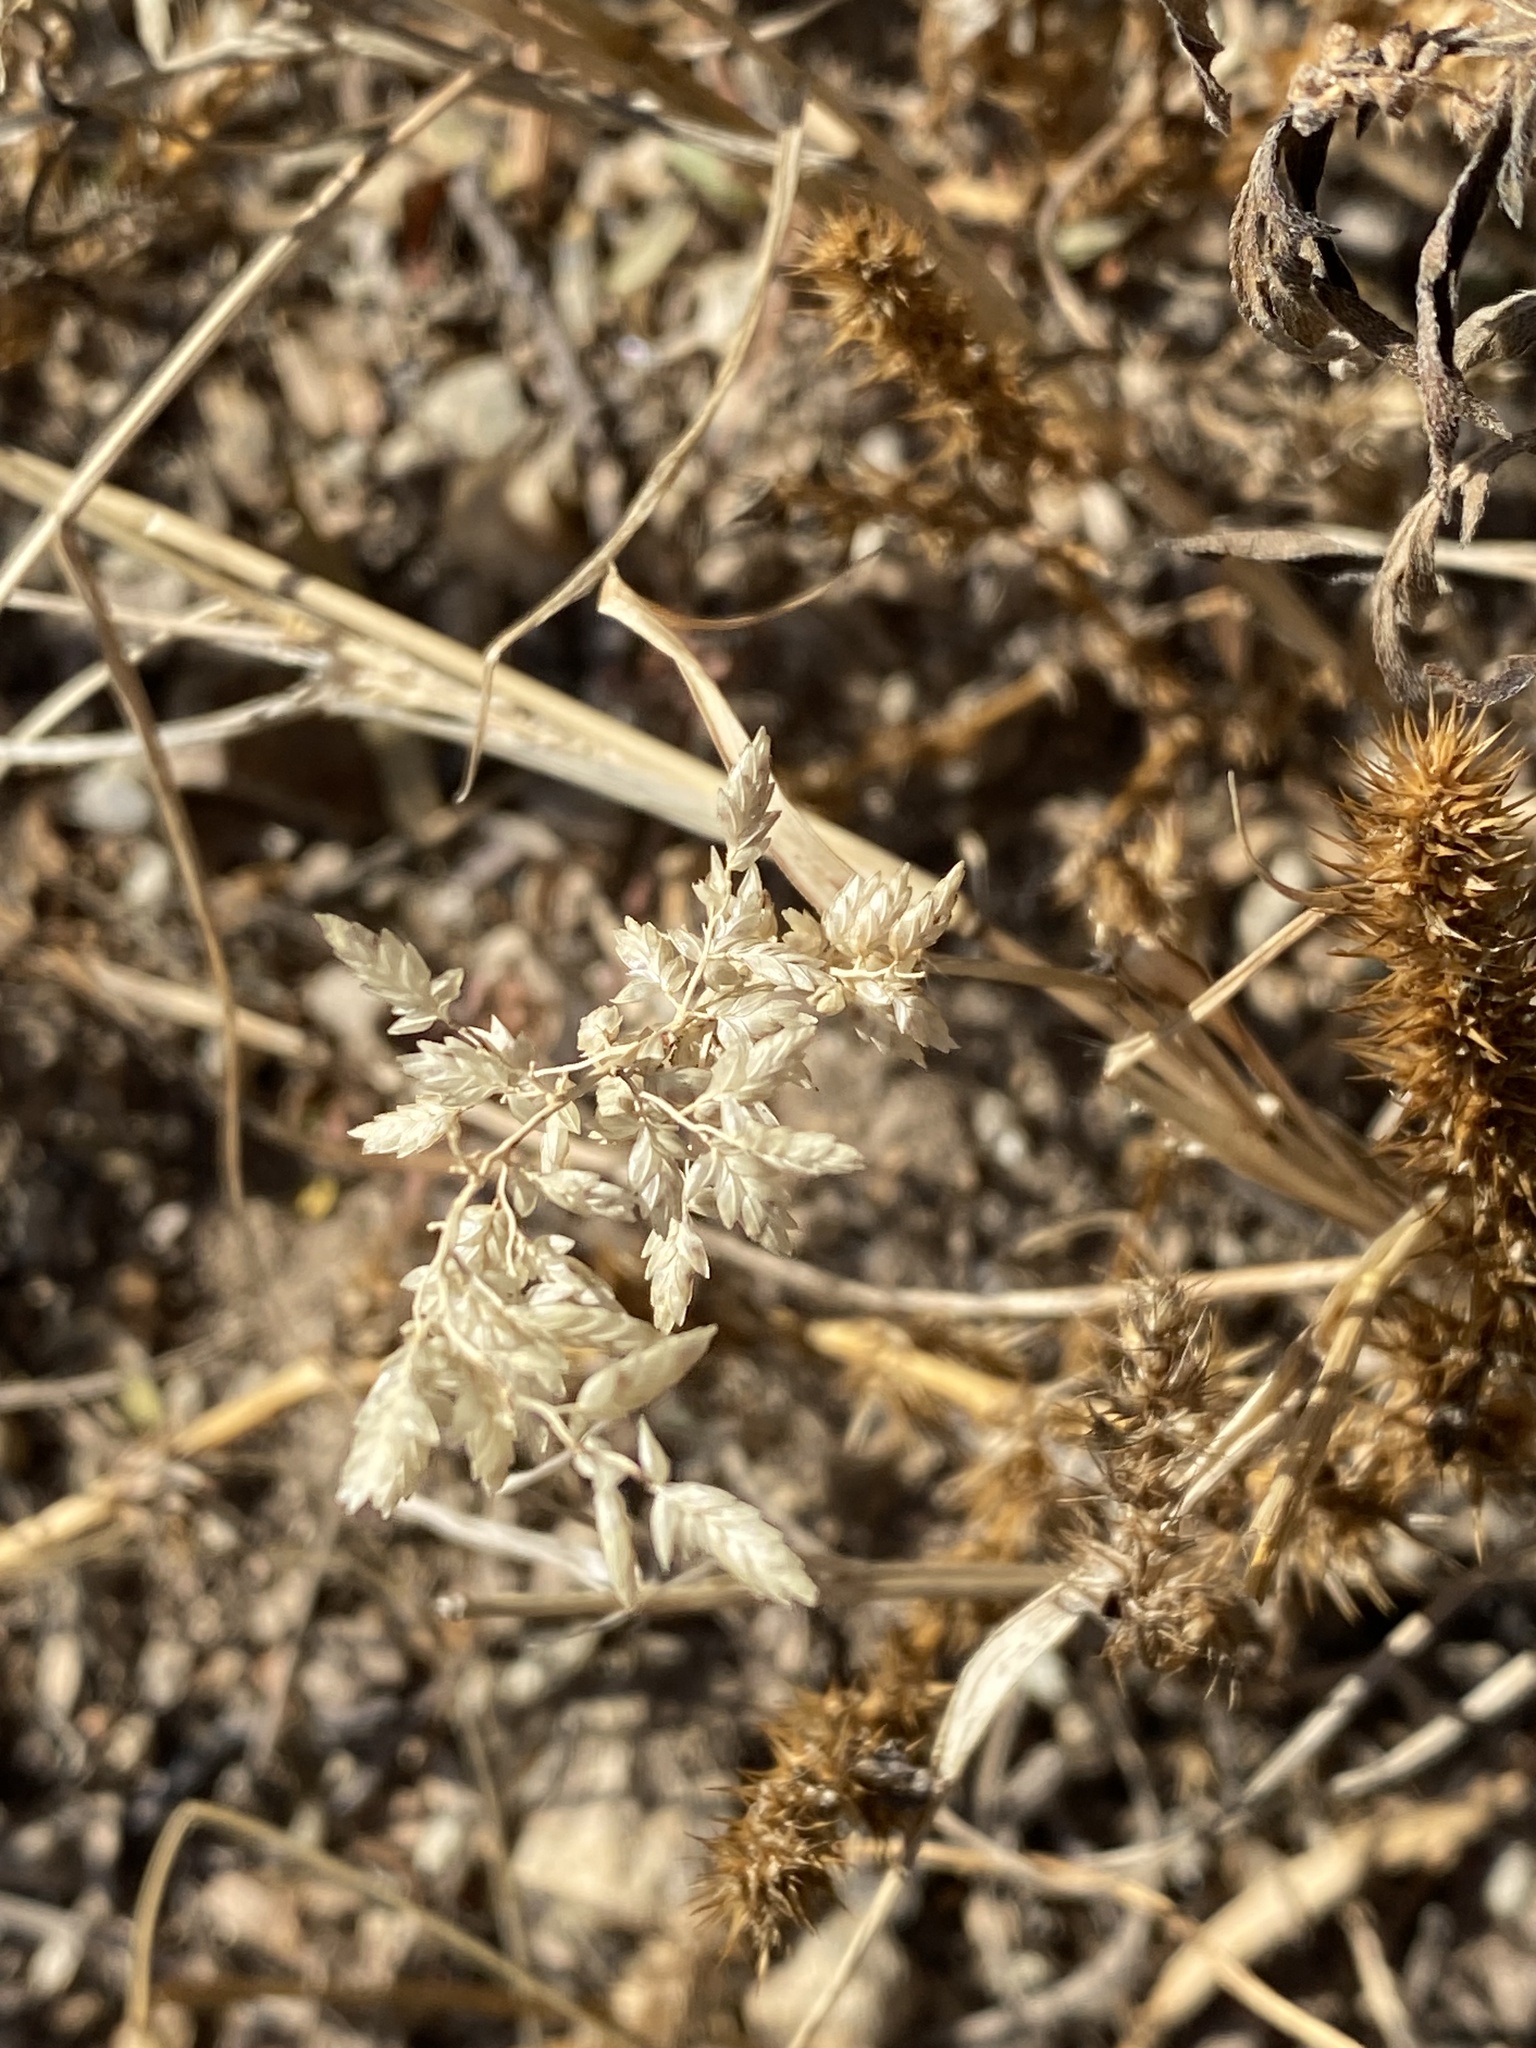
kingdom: Plantae
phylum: Tracheophyta
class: Liliopsida
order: Poales
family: Poaceae
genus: Eragrostis
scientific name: Eragrostis cilianensis
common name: Stinkgrass
